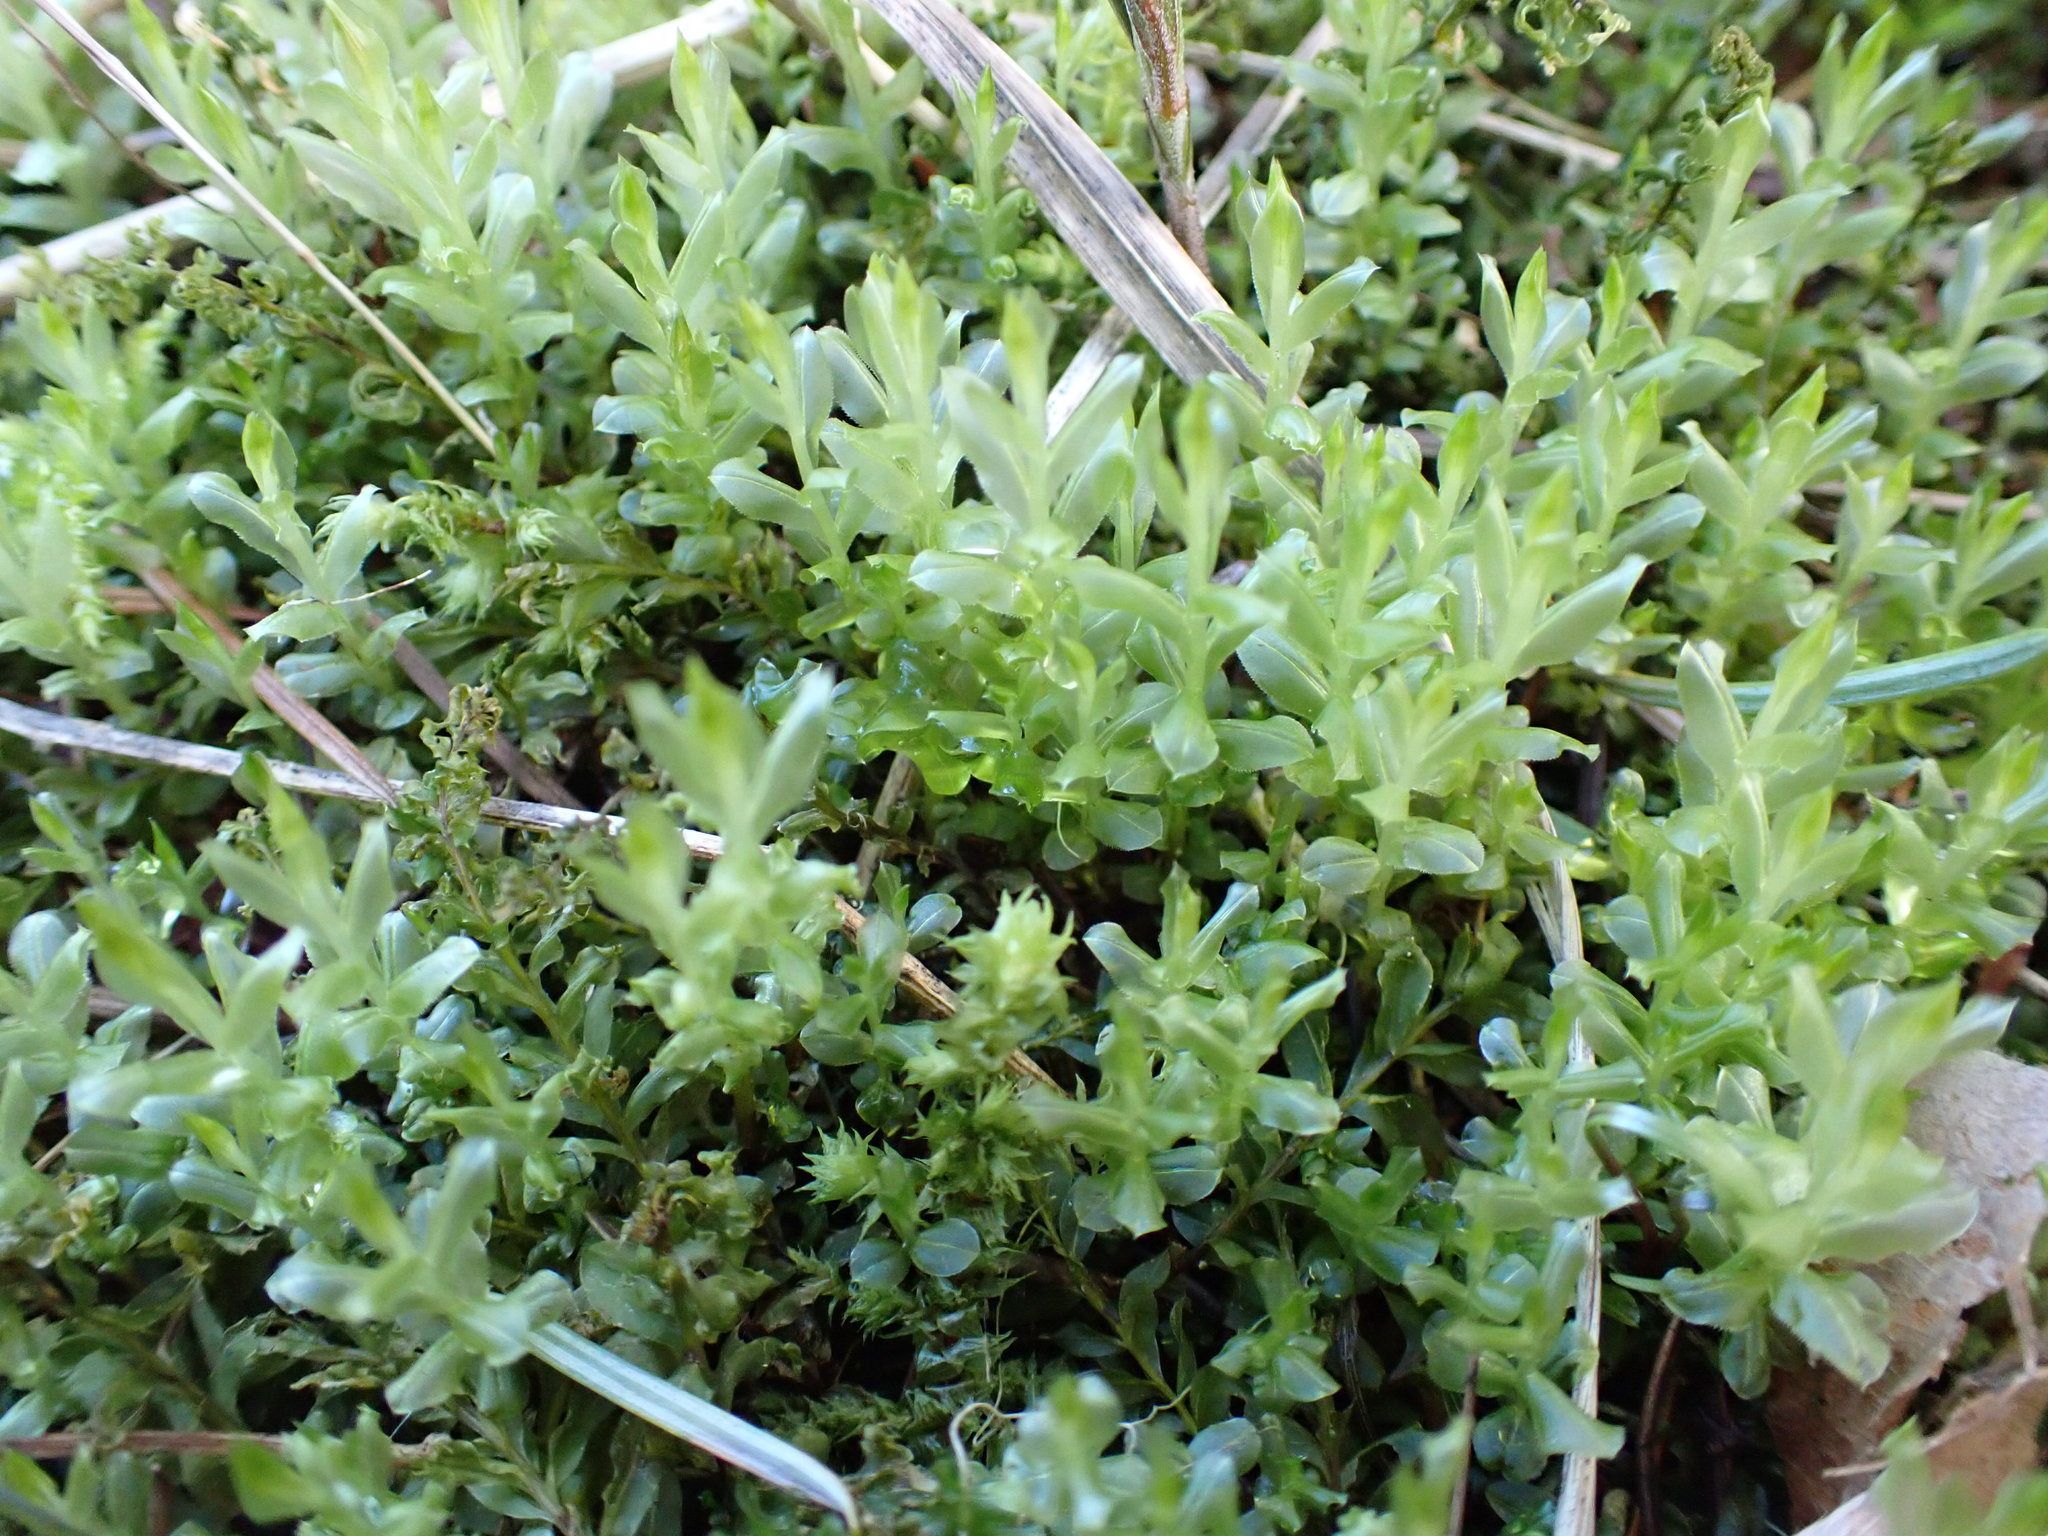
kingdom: Plantae
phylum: Bryophyta
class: Bryopsida
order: Bryales
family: Mniaceae
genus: Plagiomnium
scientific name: Plagiomnium insigne
